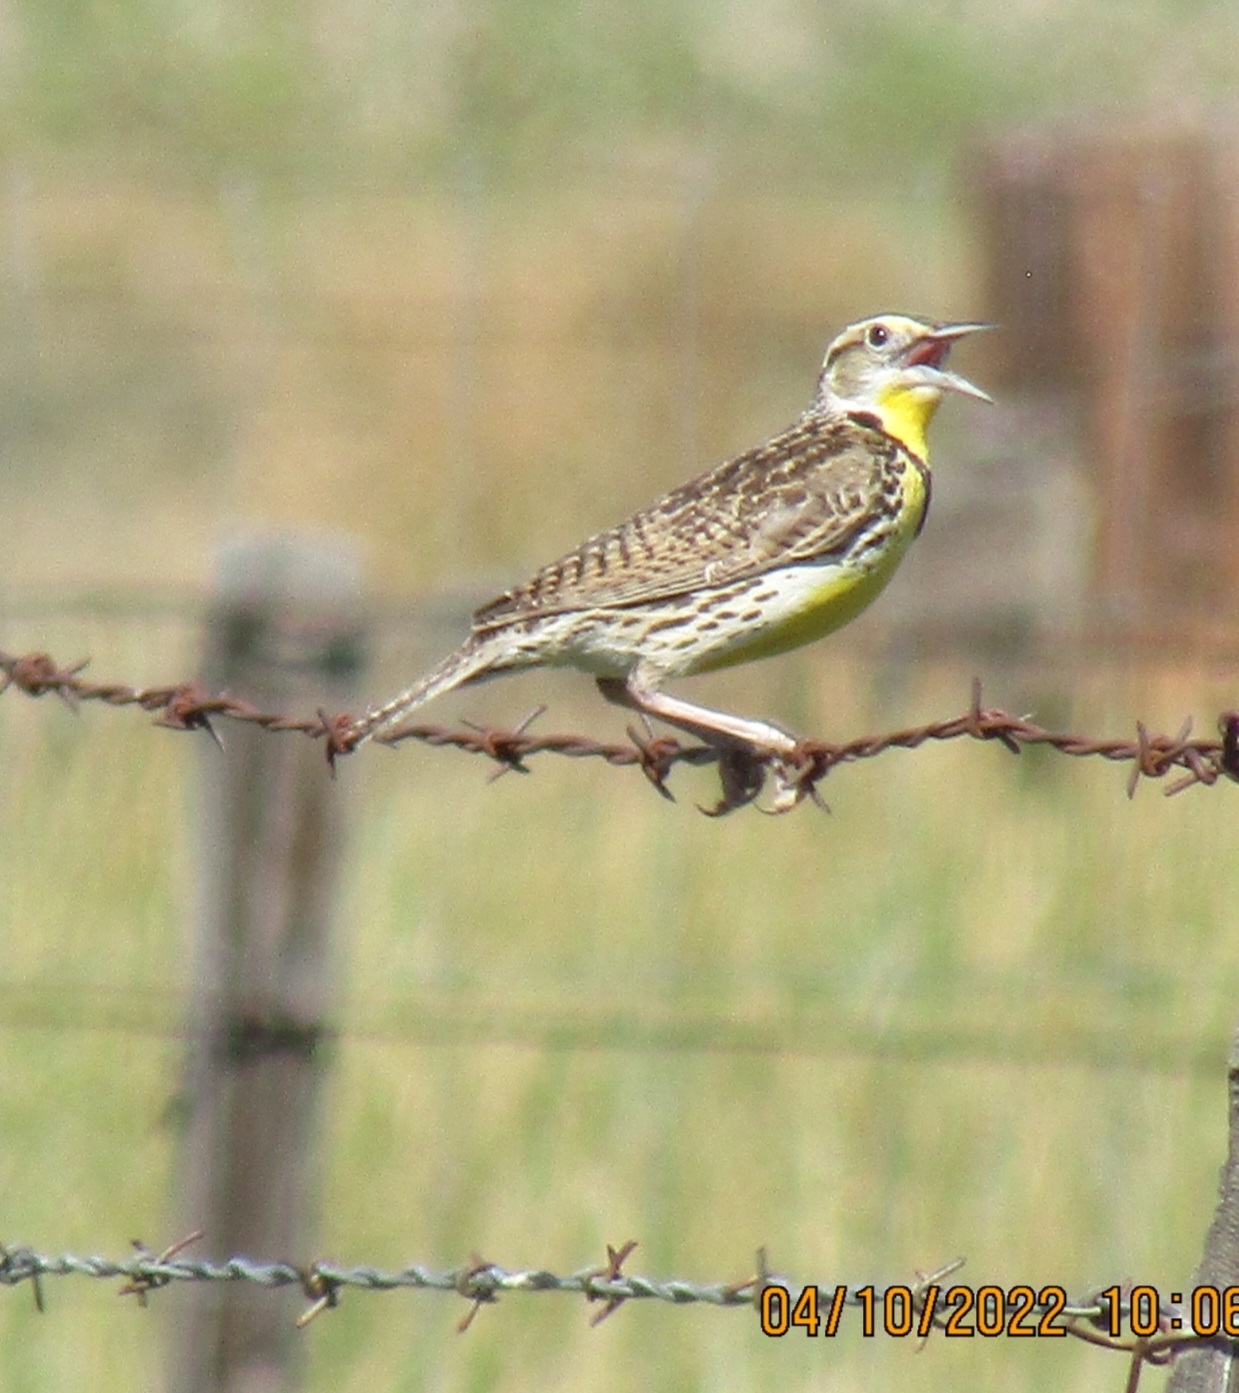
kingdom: Animalia
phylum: Chordata
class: Aves
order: Passeriformes
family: Icteridae
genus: Sturnella
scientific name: Sturnella neglecta
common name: Western meadowlark
